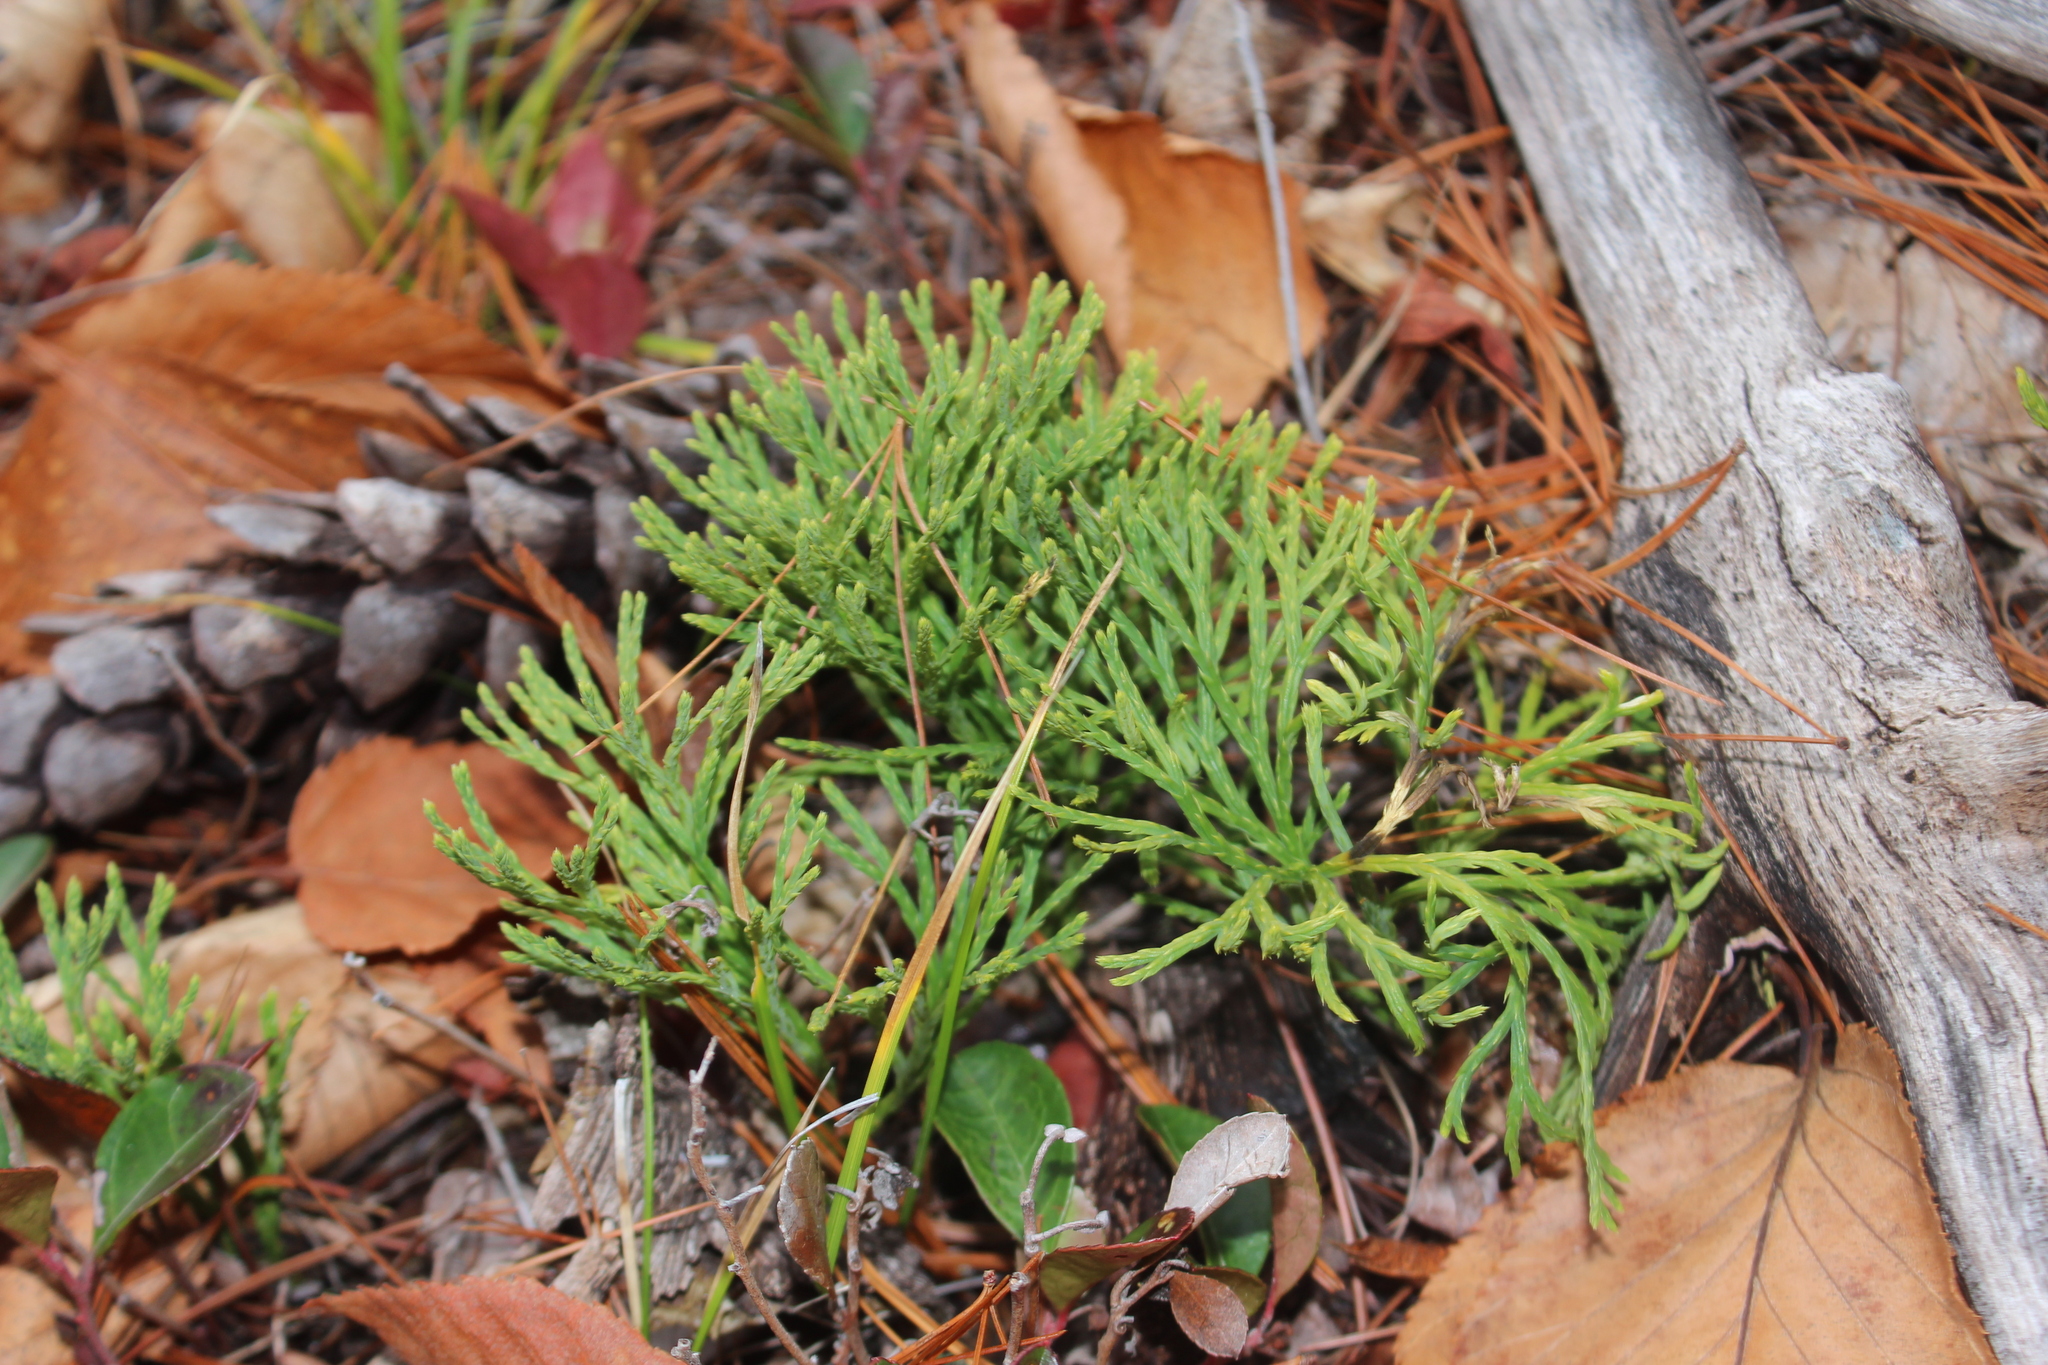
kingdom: Plantae
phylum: Tracheophyta
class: Lycopodiopsida
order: Lycopodiales
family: Lycopodiaceae
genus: Diphasiastrum
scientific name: Diphasiastrum tristachyum
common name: Blue ground-cedar
